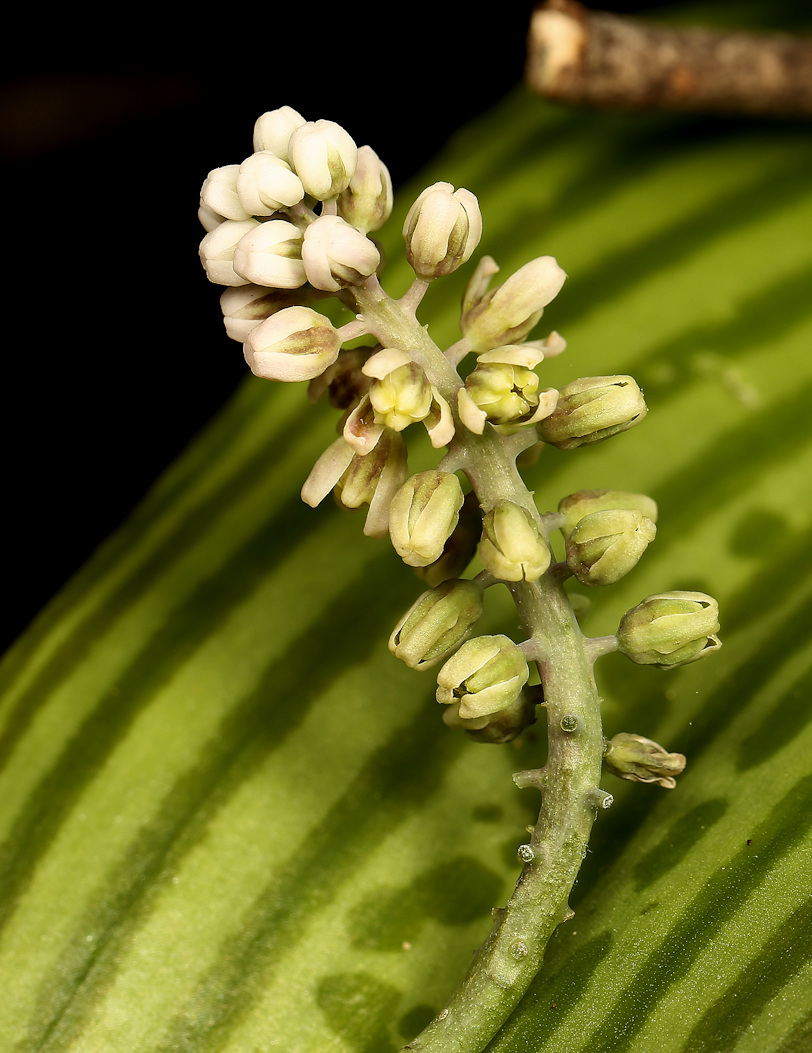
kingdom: Plantae
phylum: Tracheophyta
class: Liliopsida
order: Asparagales
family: Asparagaceae
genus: Drimiopsis
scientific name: Drimiopsis burkei
